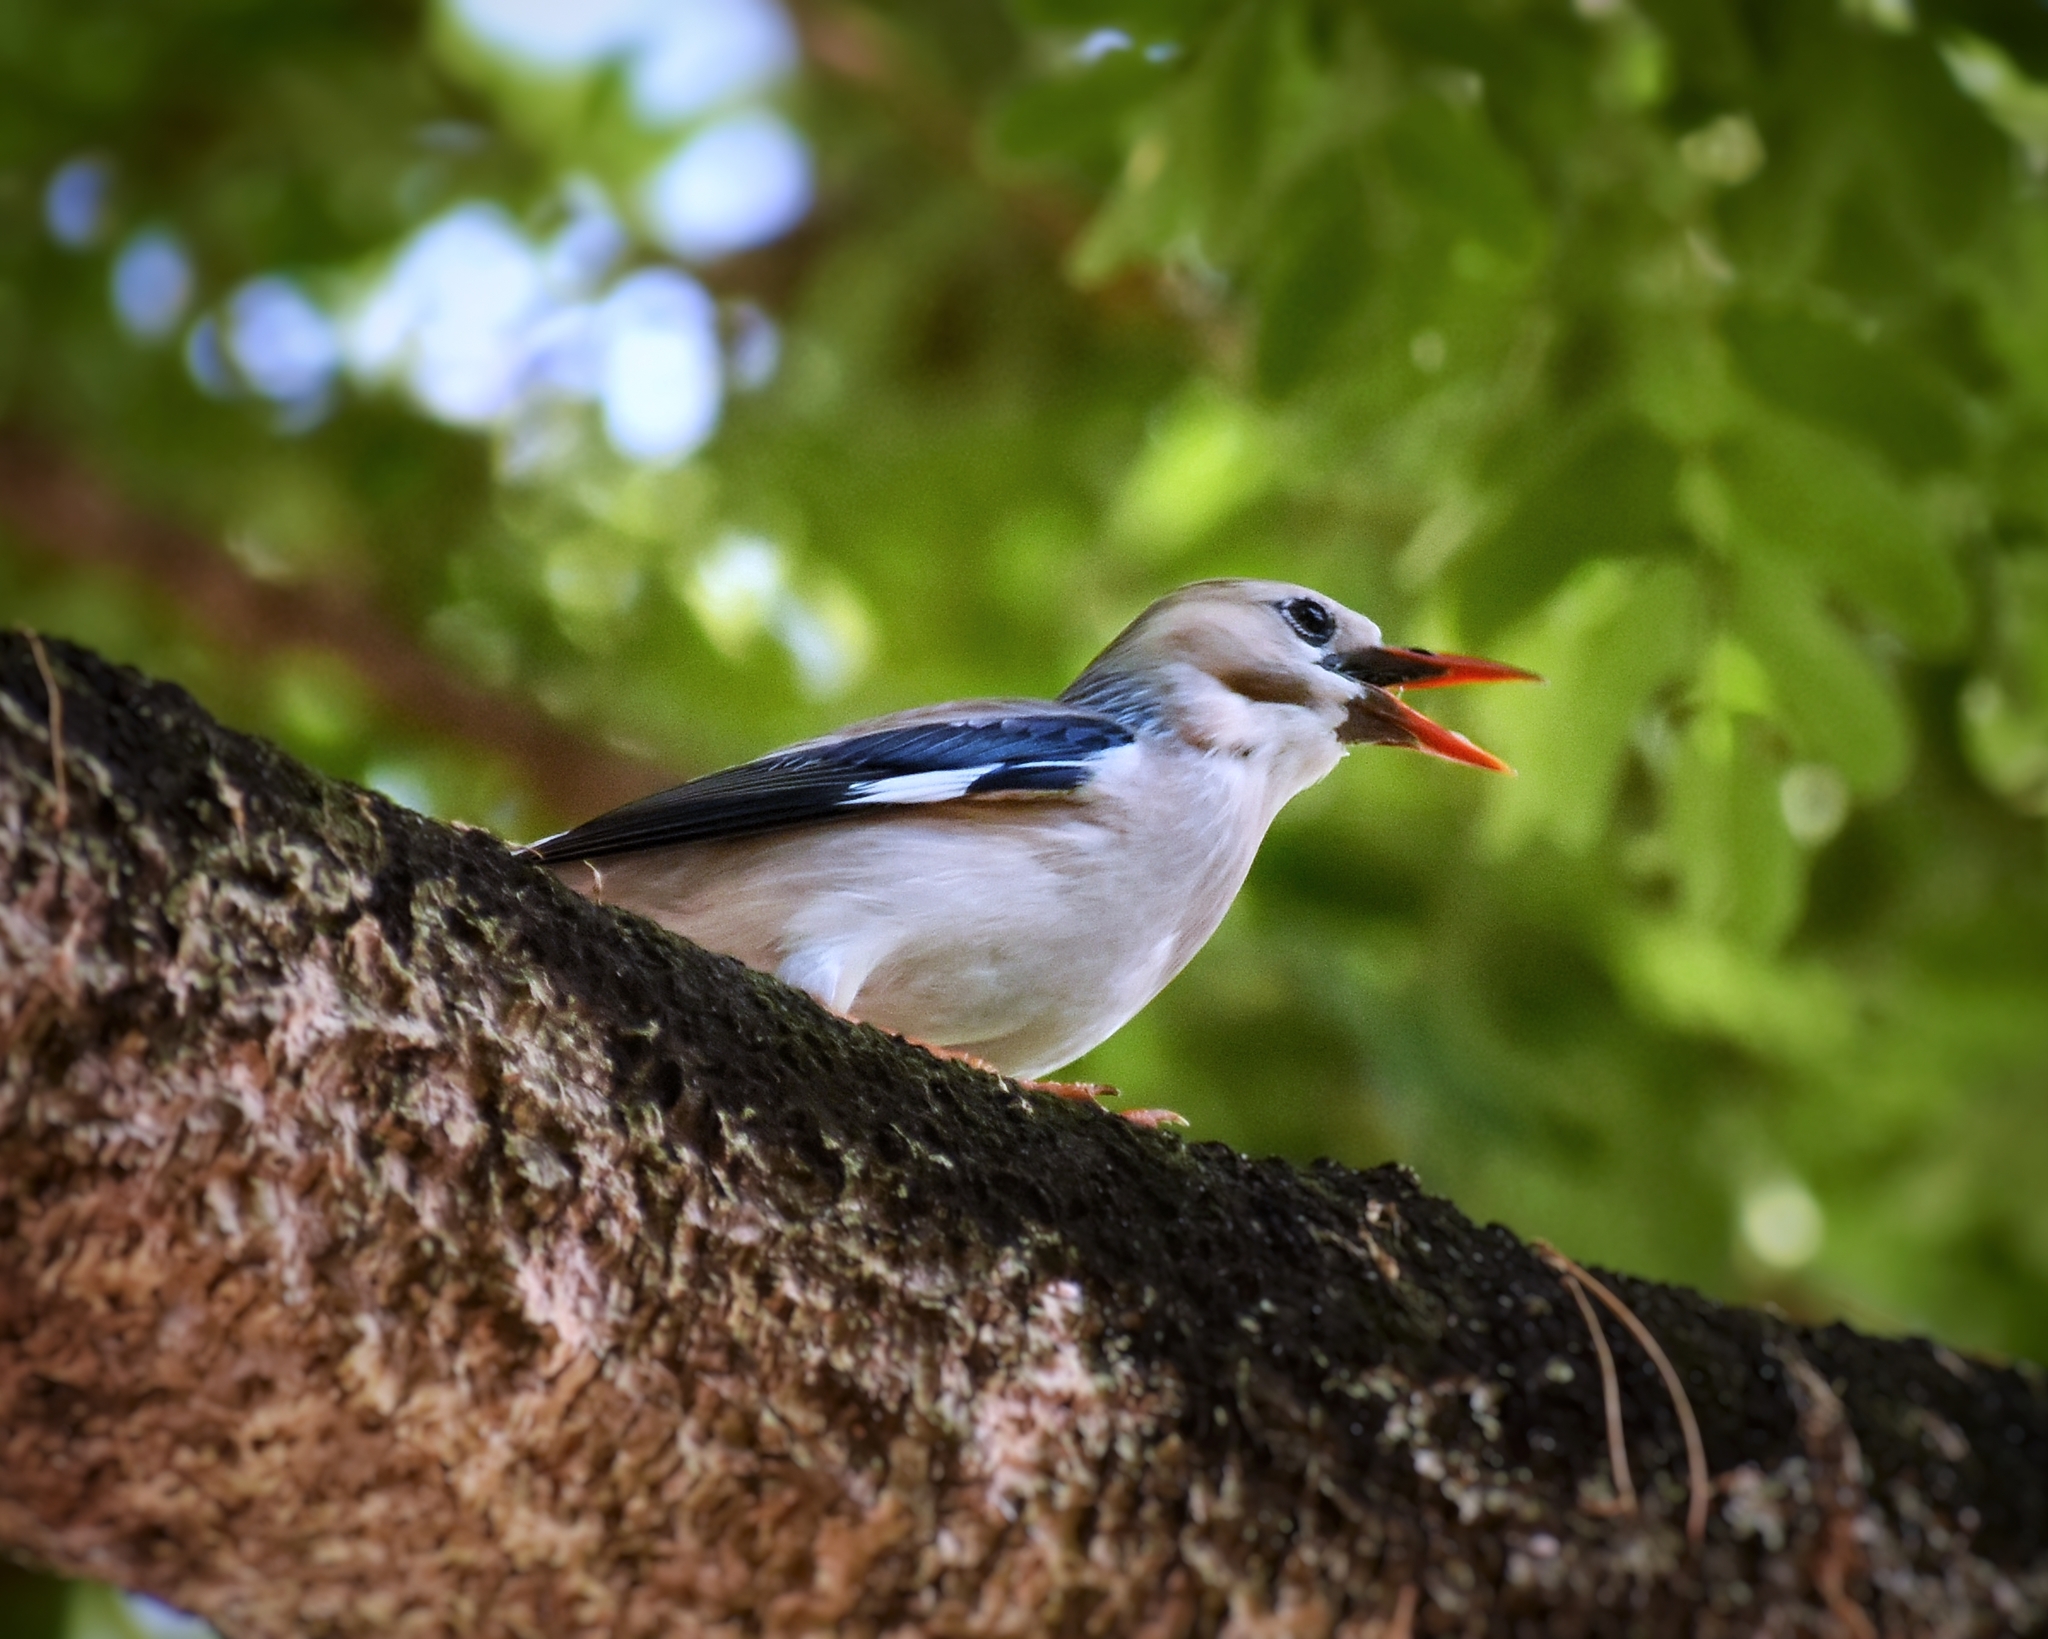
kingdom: Animalia
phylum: Chordata
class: Aves
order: Passeriformes
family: Sturnidae
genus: Spodiopsar
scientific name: Spodiopsar sericeus
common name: Red-billed starling
